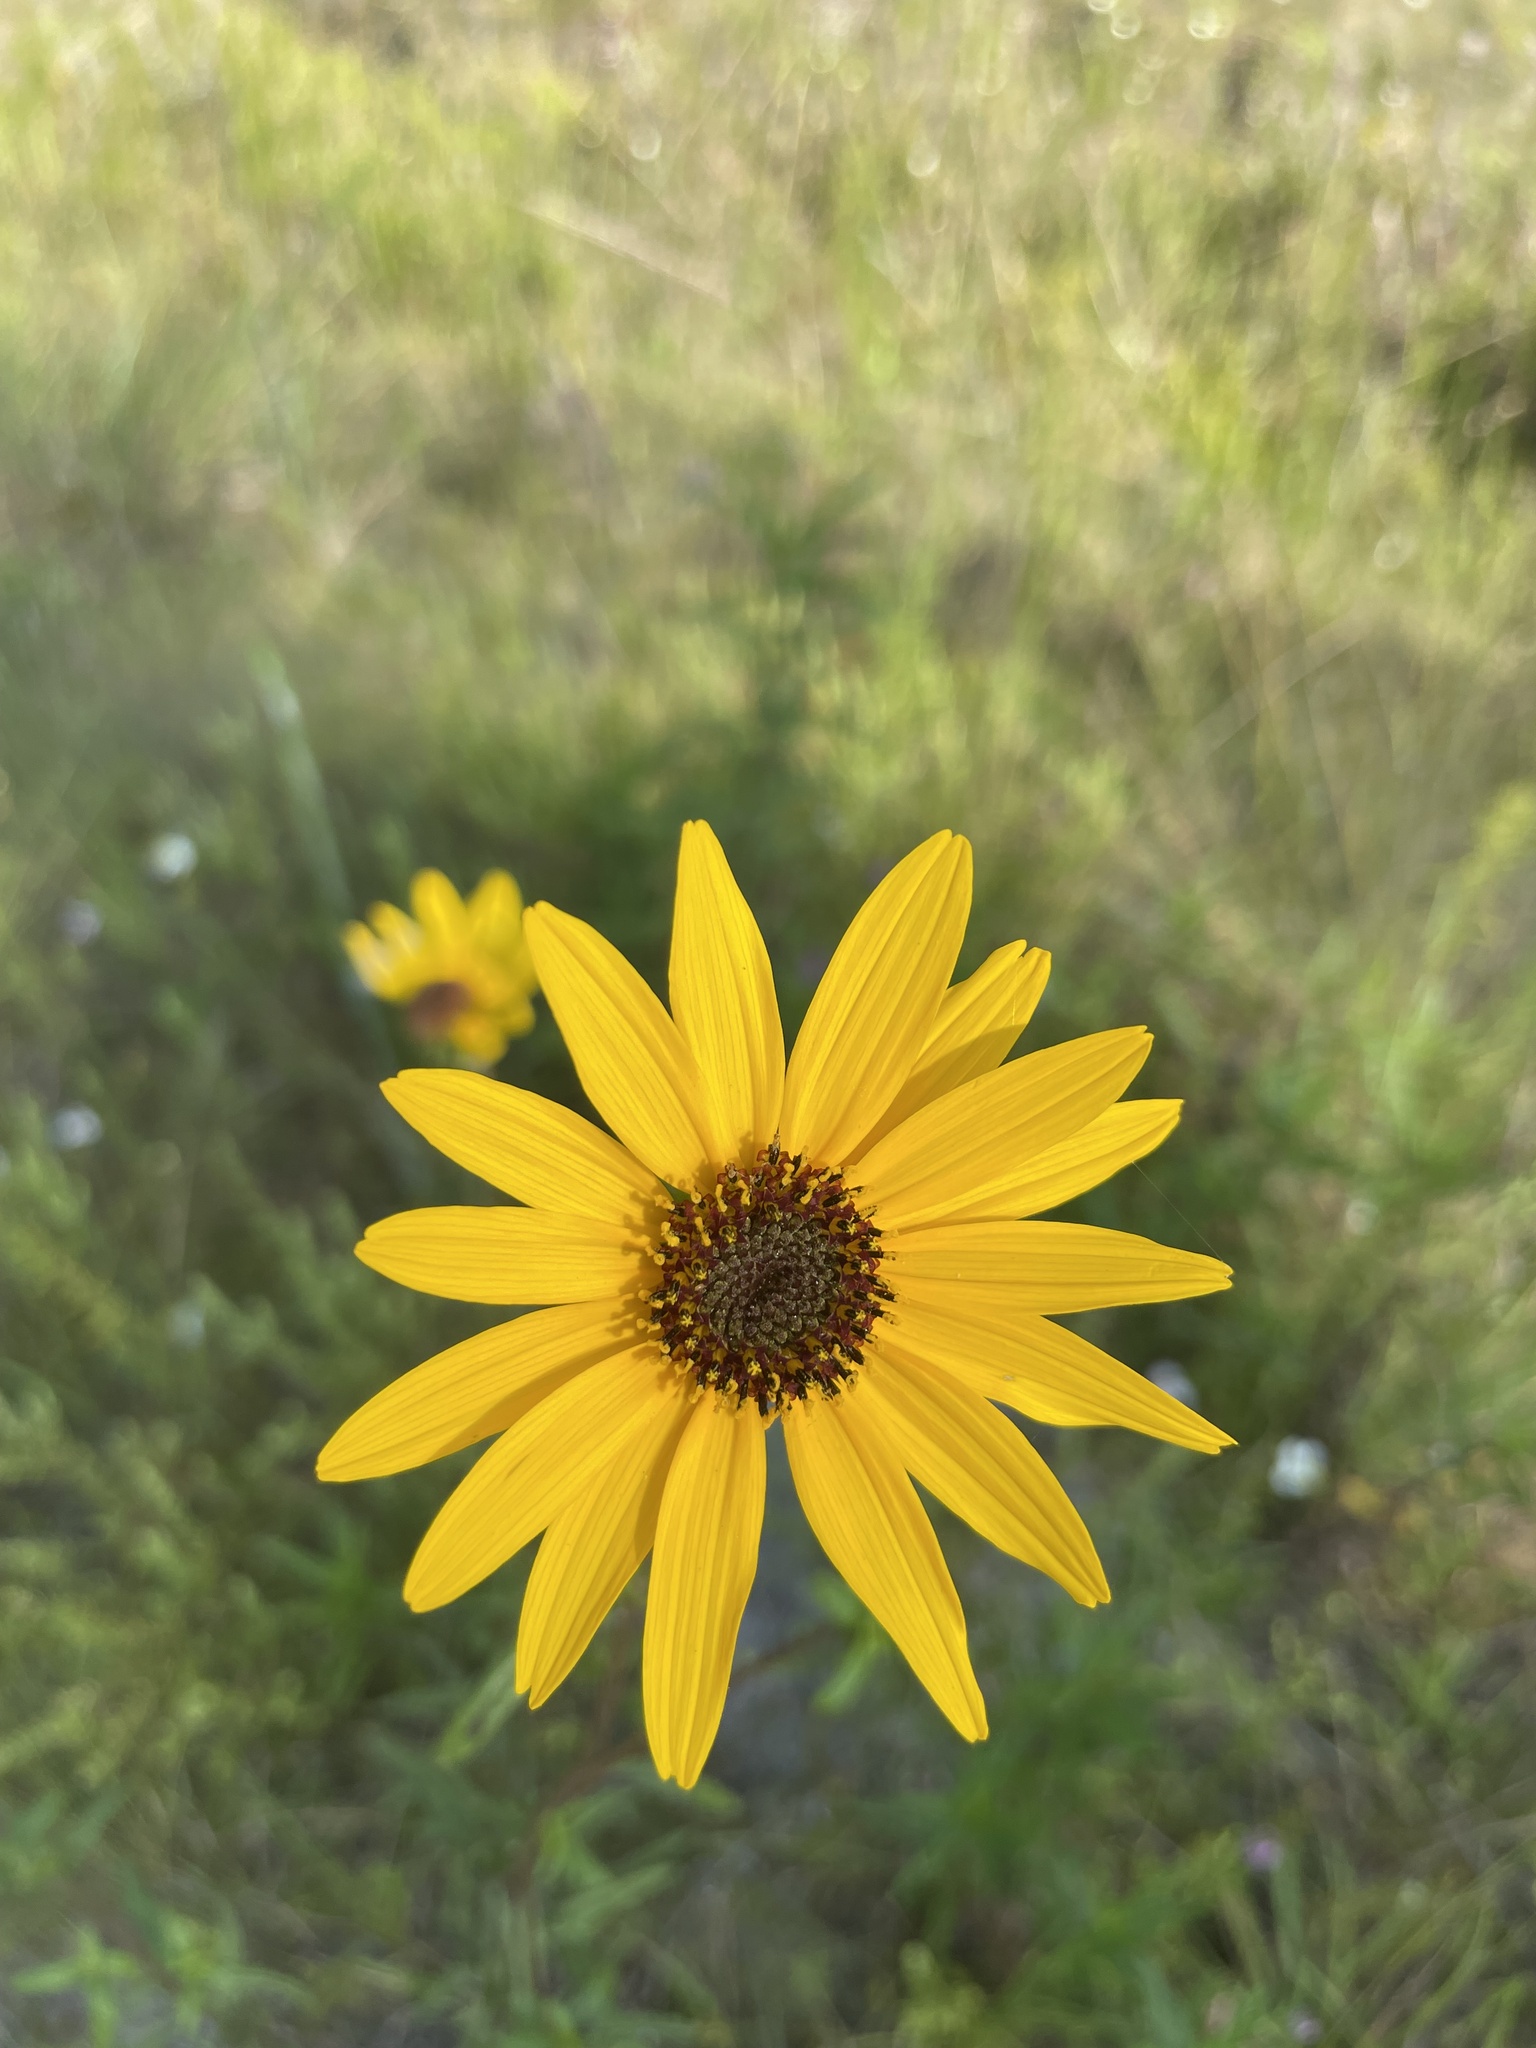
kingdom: Plantae
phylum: Tracheophyta
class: Magnoliopsida
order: Asterales
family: Asteraceae
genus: Helianthus
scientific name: Helianthus angustifolius
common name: Swamp sunflower
